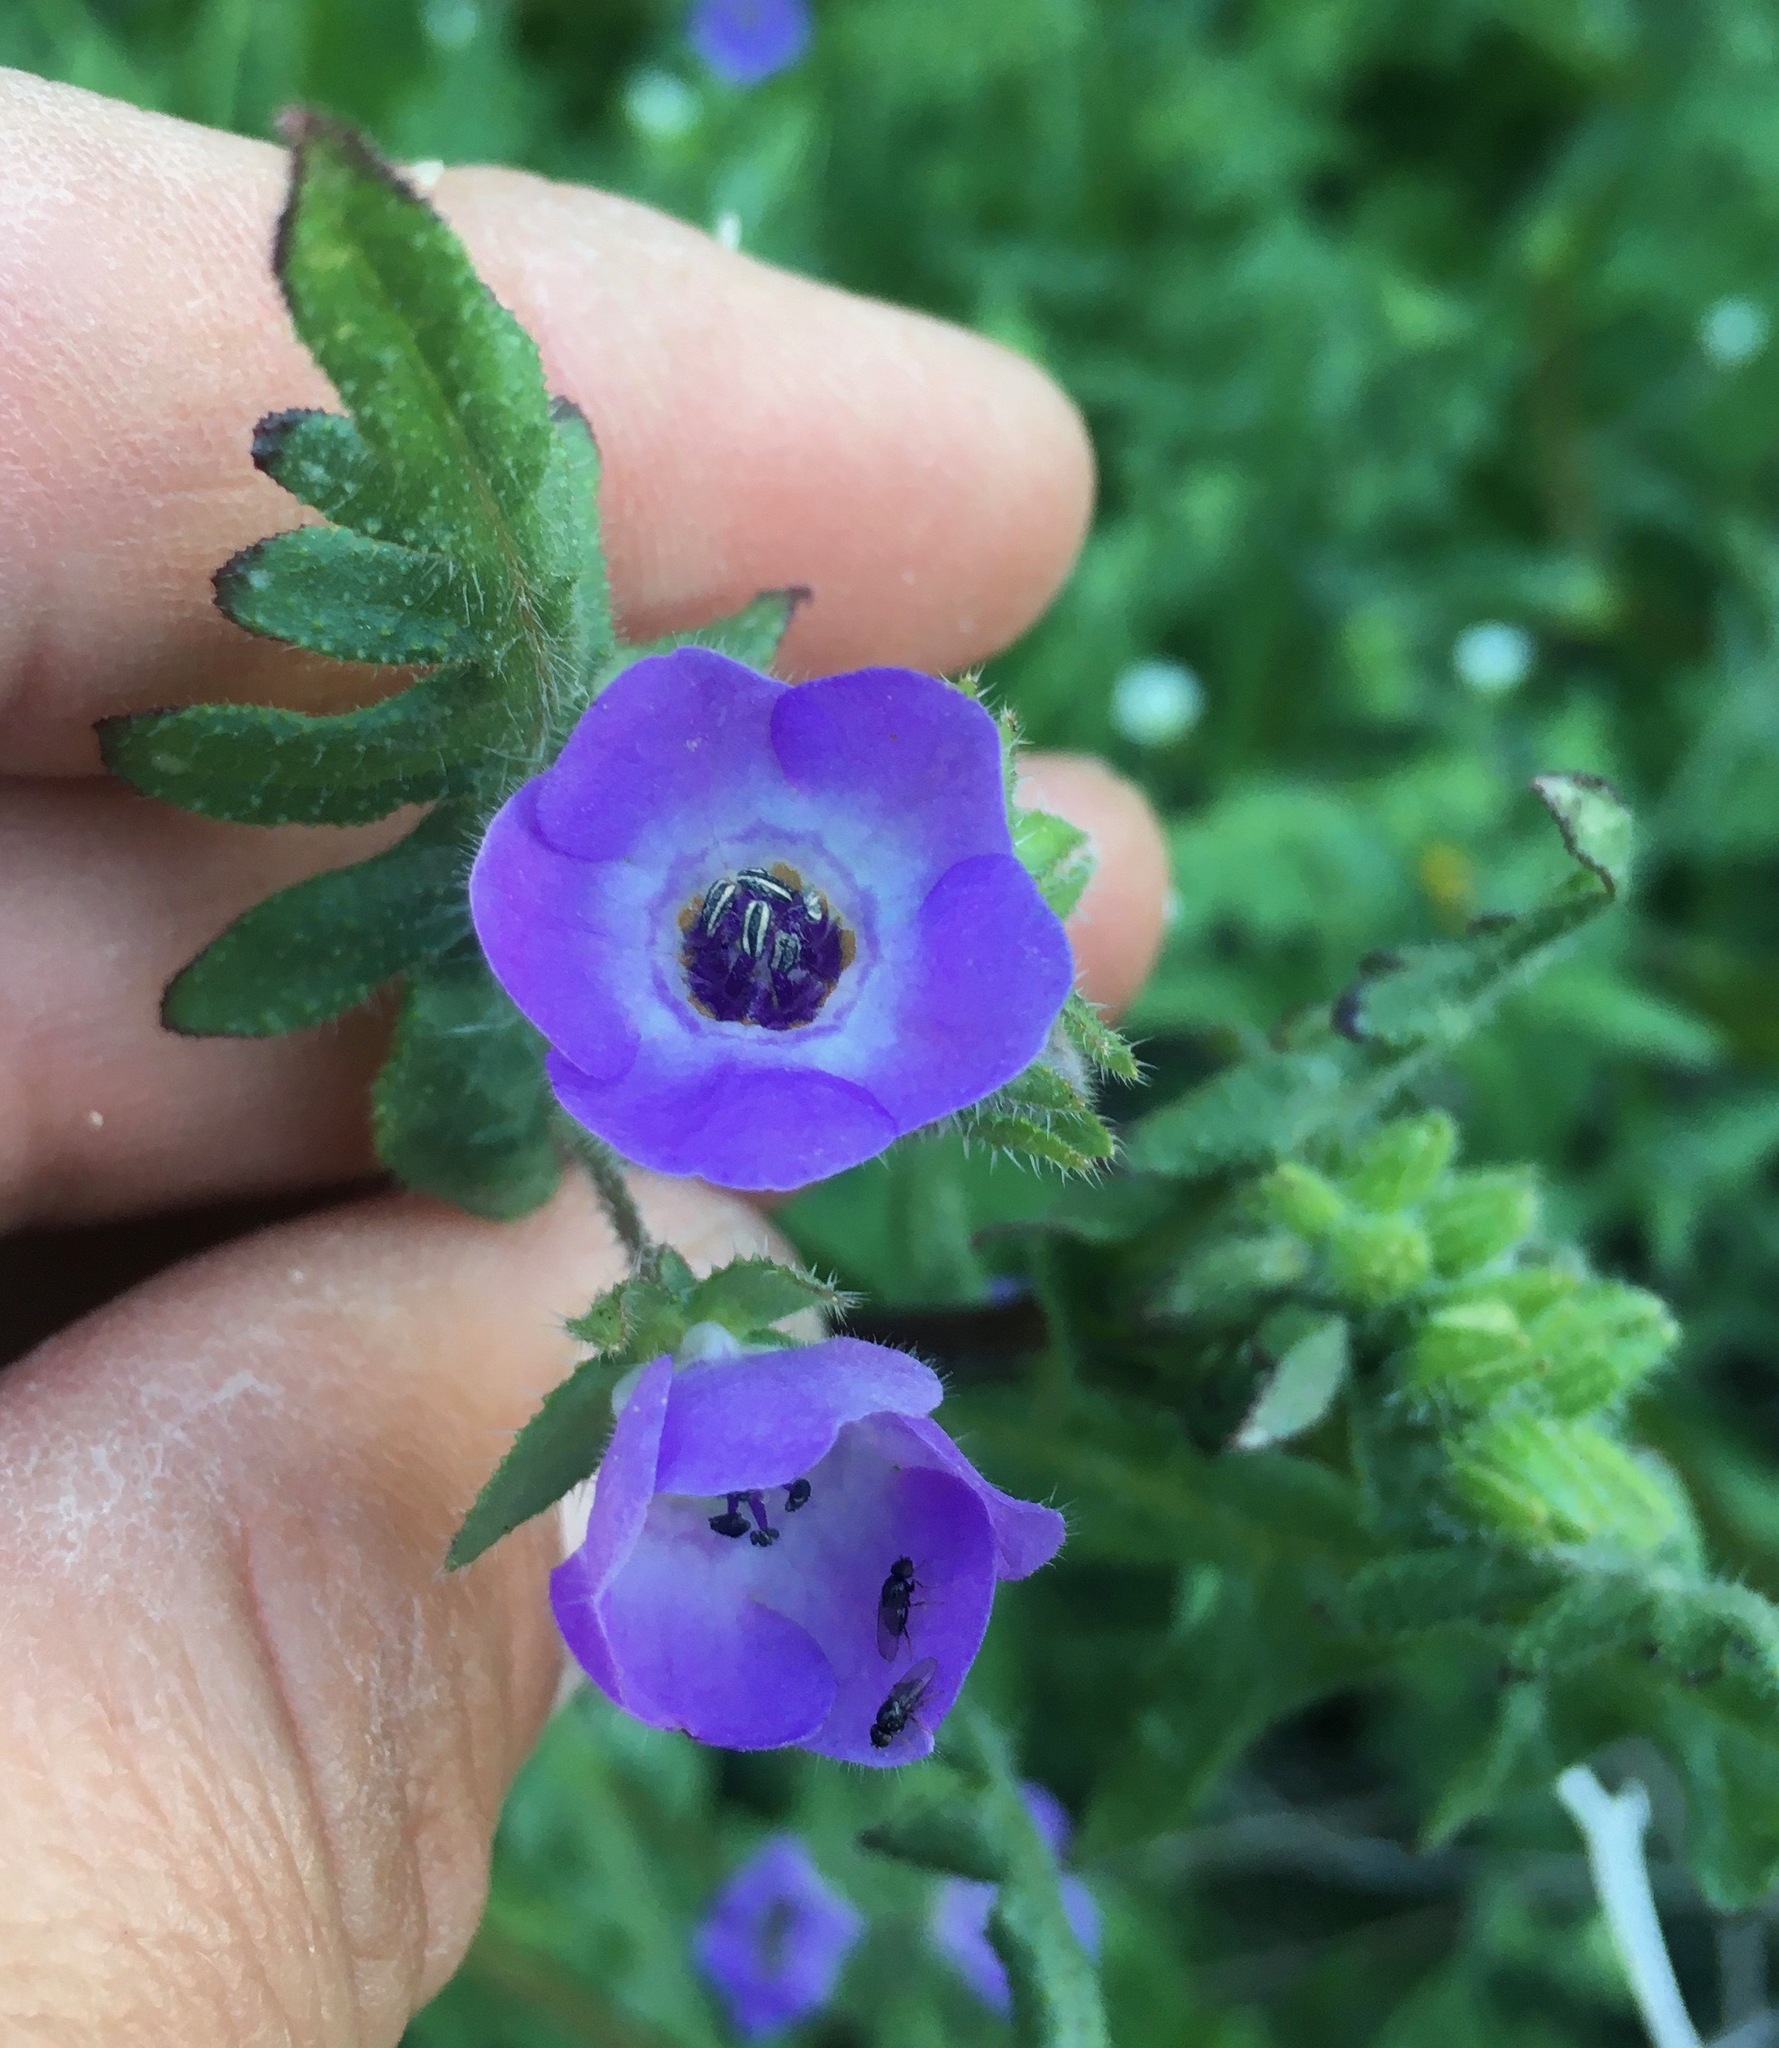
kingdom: Plantae
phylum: Tracheophyta
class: Magnoliopsida
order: Boraginales
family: Hydrophyllaceae
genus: Pholistoma
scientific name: Pholistoma auritum
